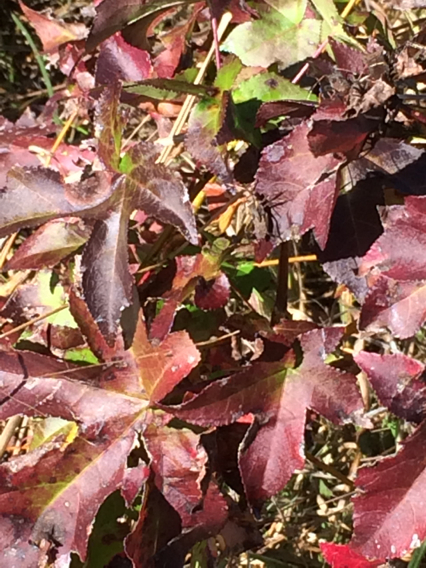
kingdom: Plantae
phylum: Tracheophyta
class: Magnoliopsida
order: Saxifragales
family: Altingiaceae
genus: Liquidambar
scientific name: Liquidambar styraciflua
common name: Sweet gum
